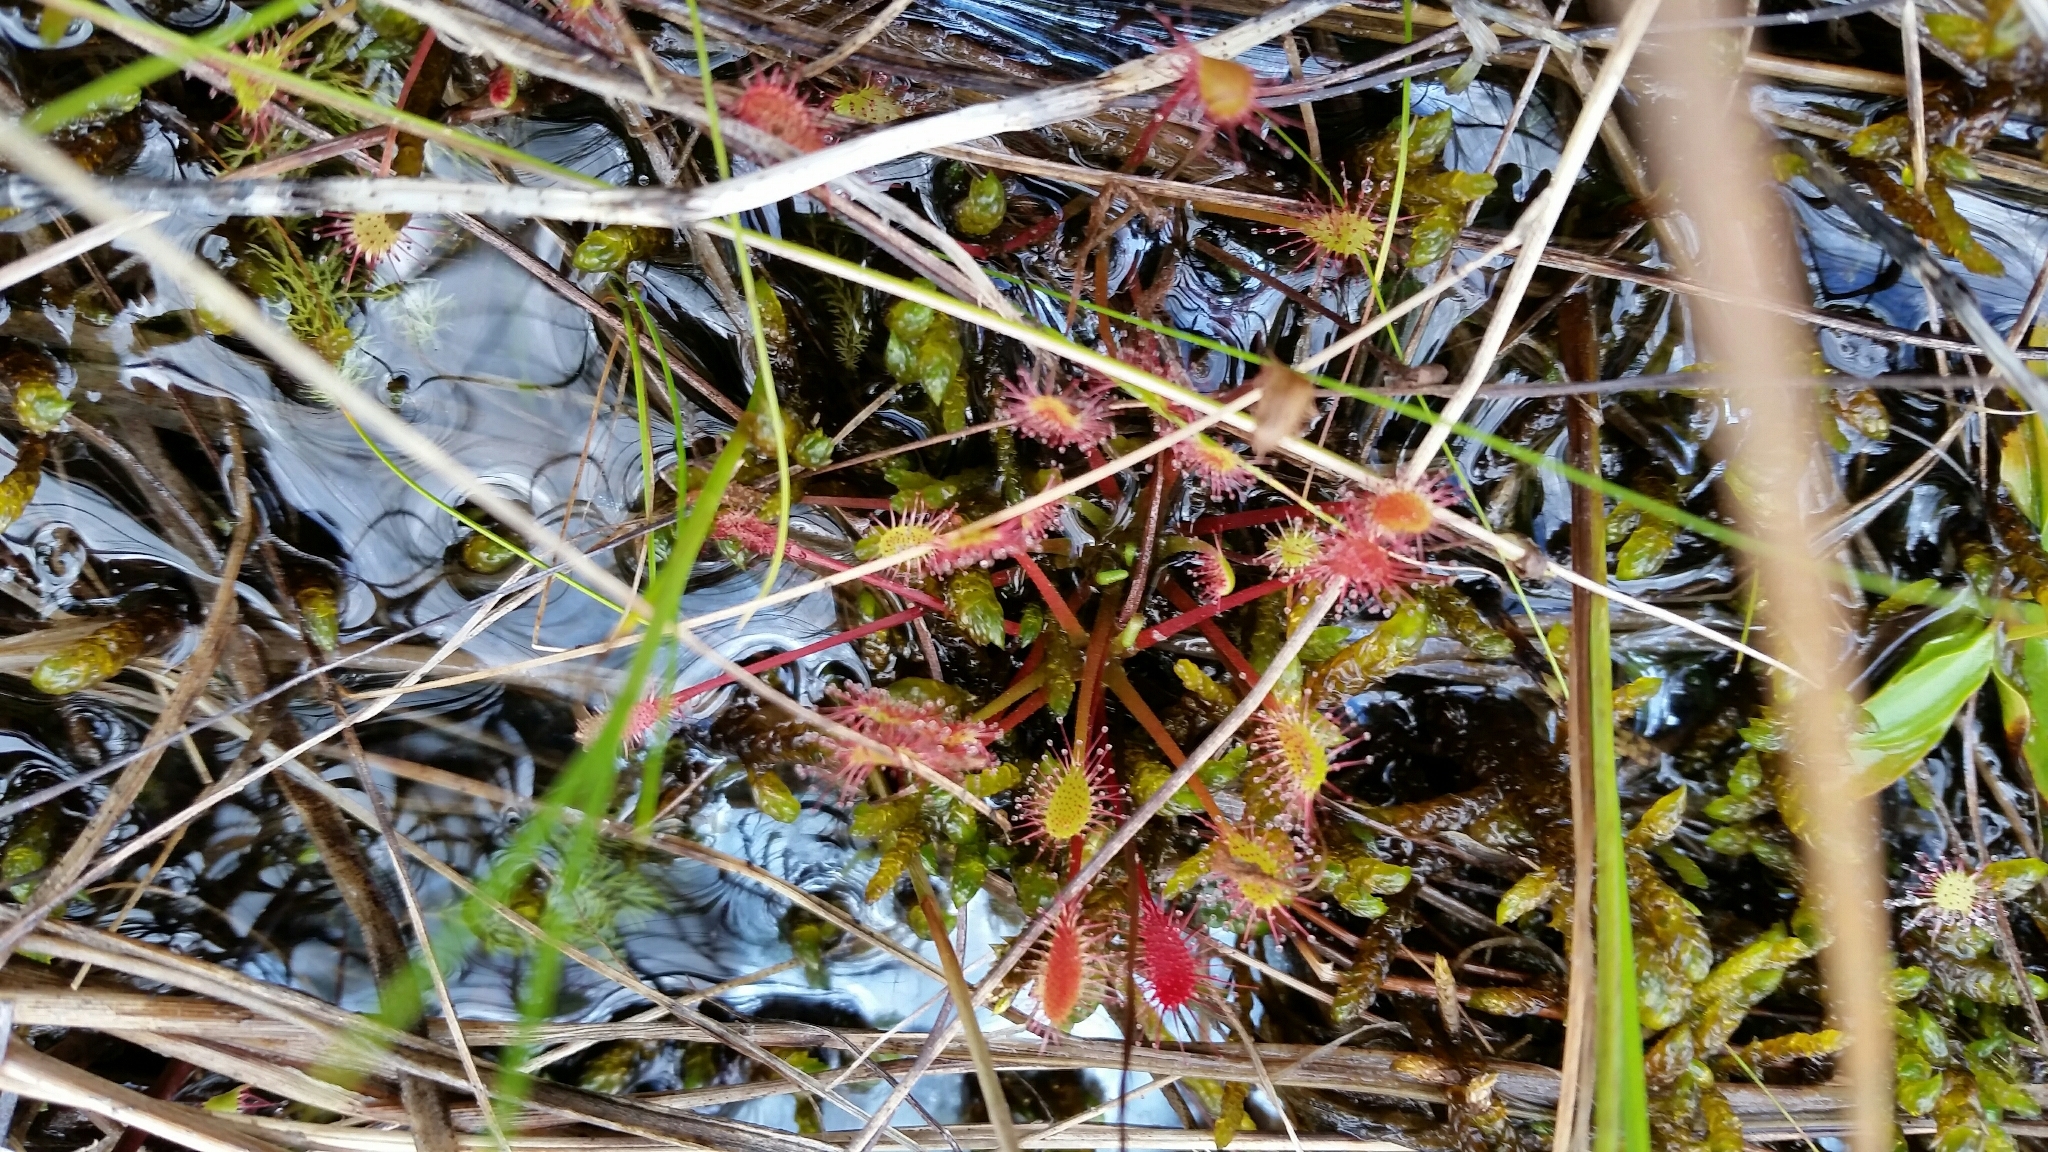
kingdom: Plantae
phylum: Tracheophyta
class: Magnoliopsida
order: Caryophyllales
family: Droseraceae
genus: Drosera
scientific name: Drosera anglica
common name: Great sundew
